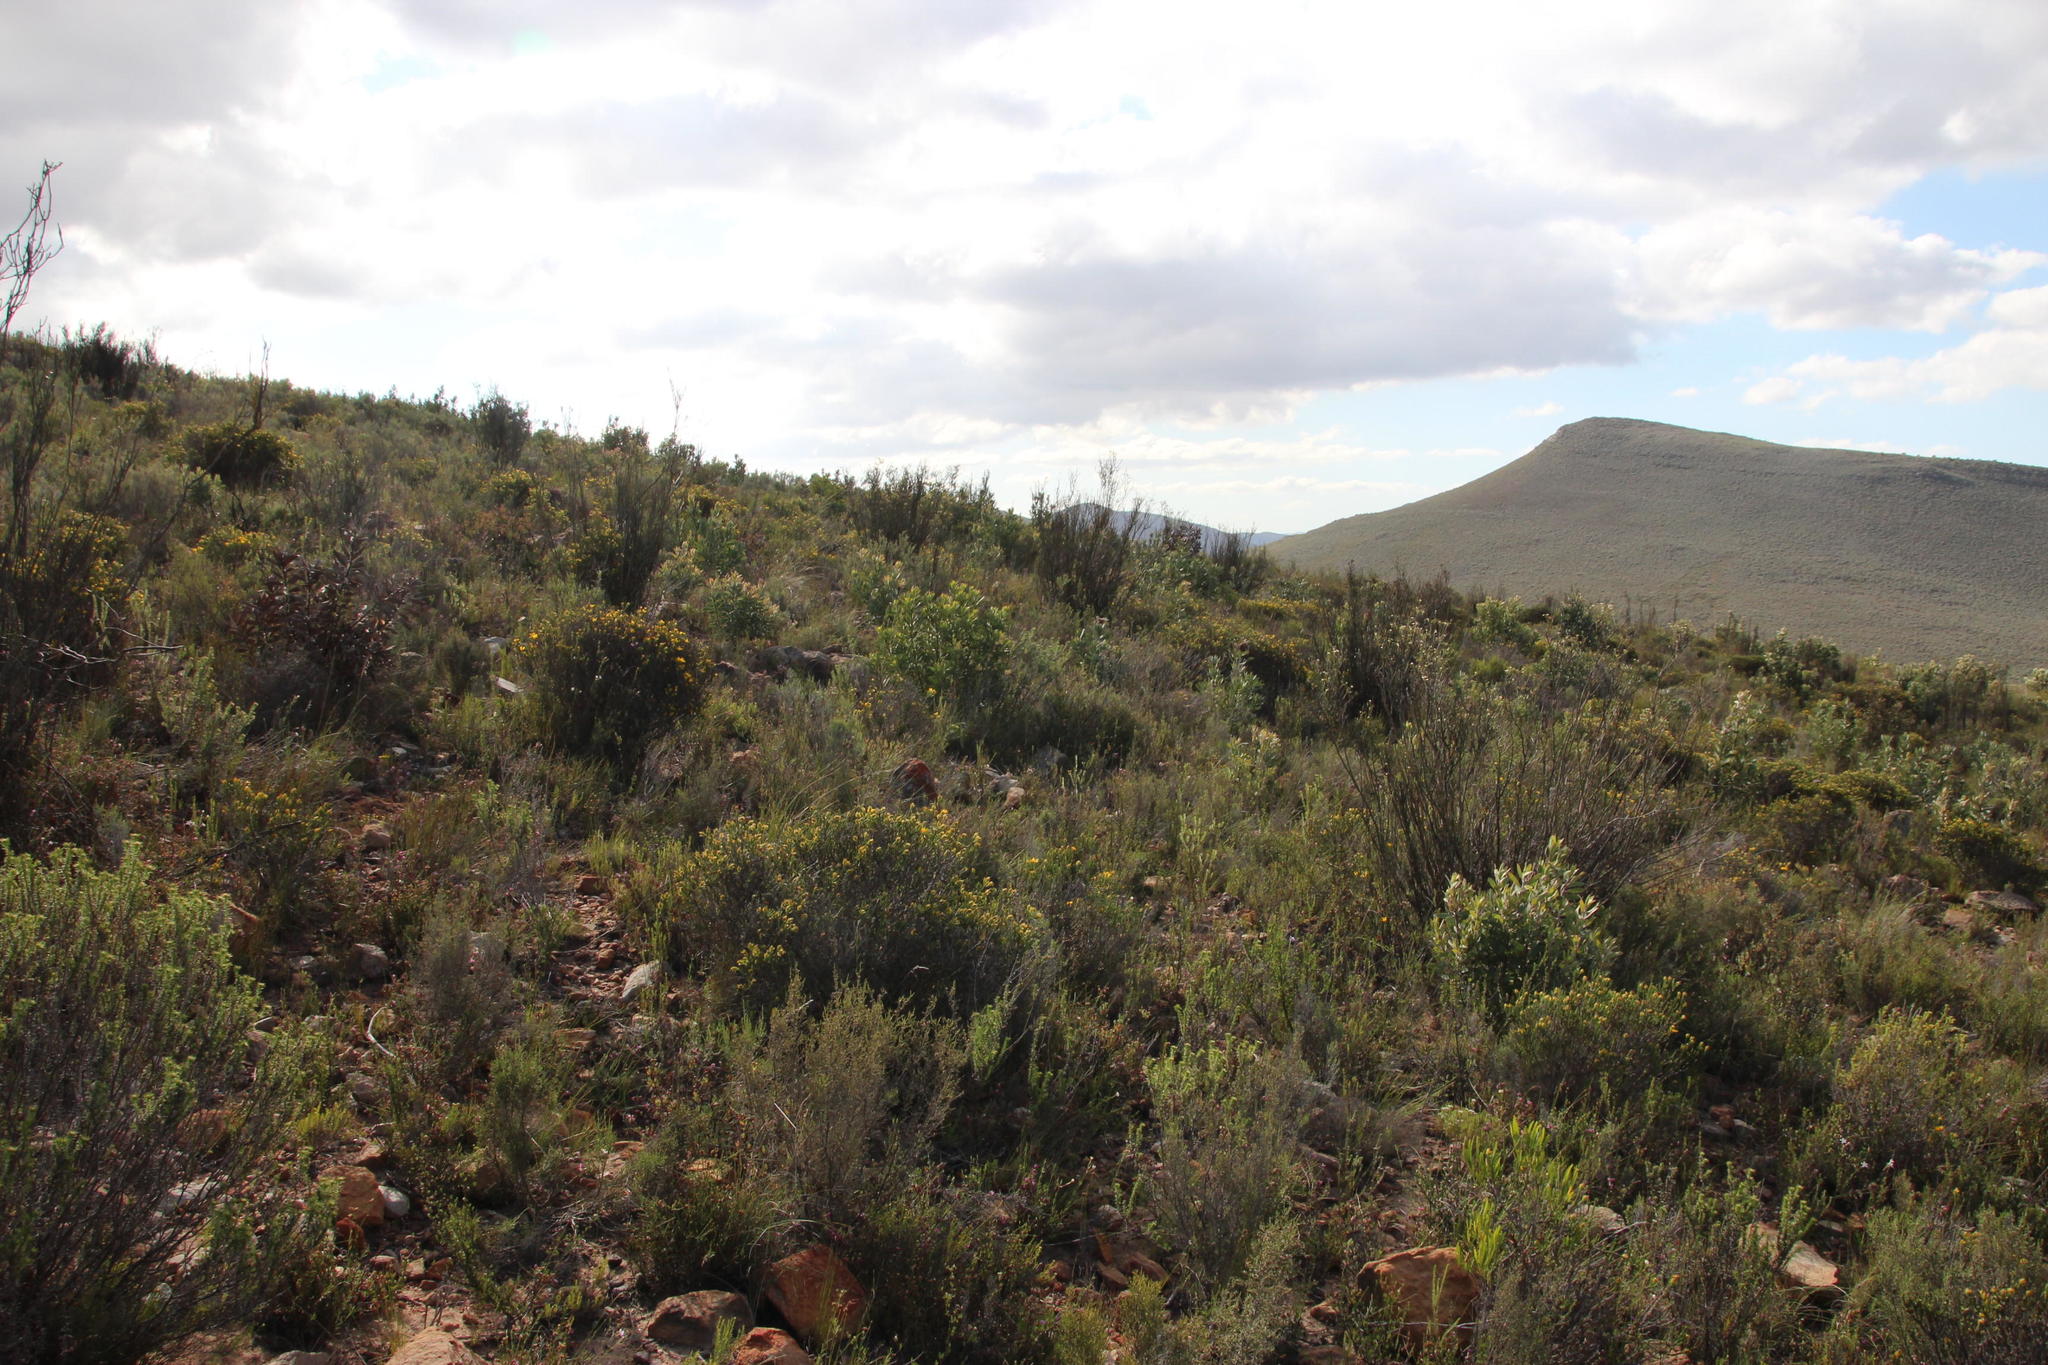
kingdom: Plantae
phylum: Tracheophyta
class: Magnoliopsida
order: Asterales
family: Asteraceae
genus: Cullumia
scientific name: Cullumia sulcata
